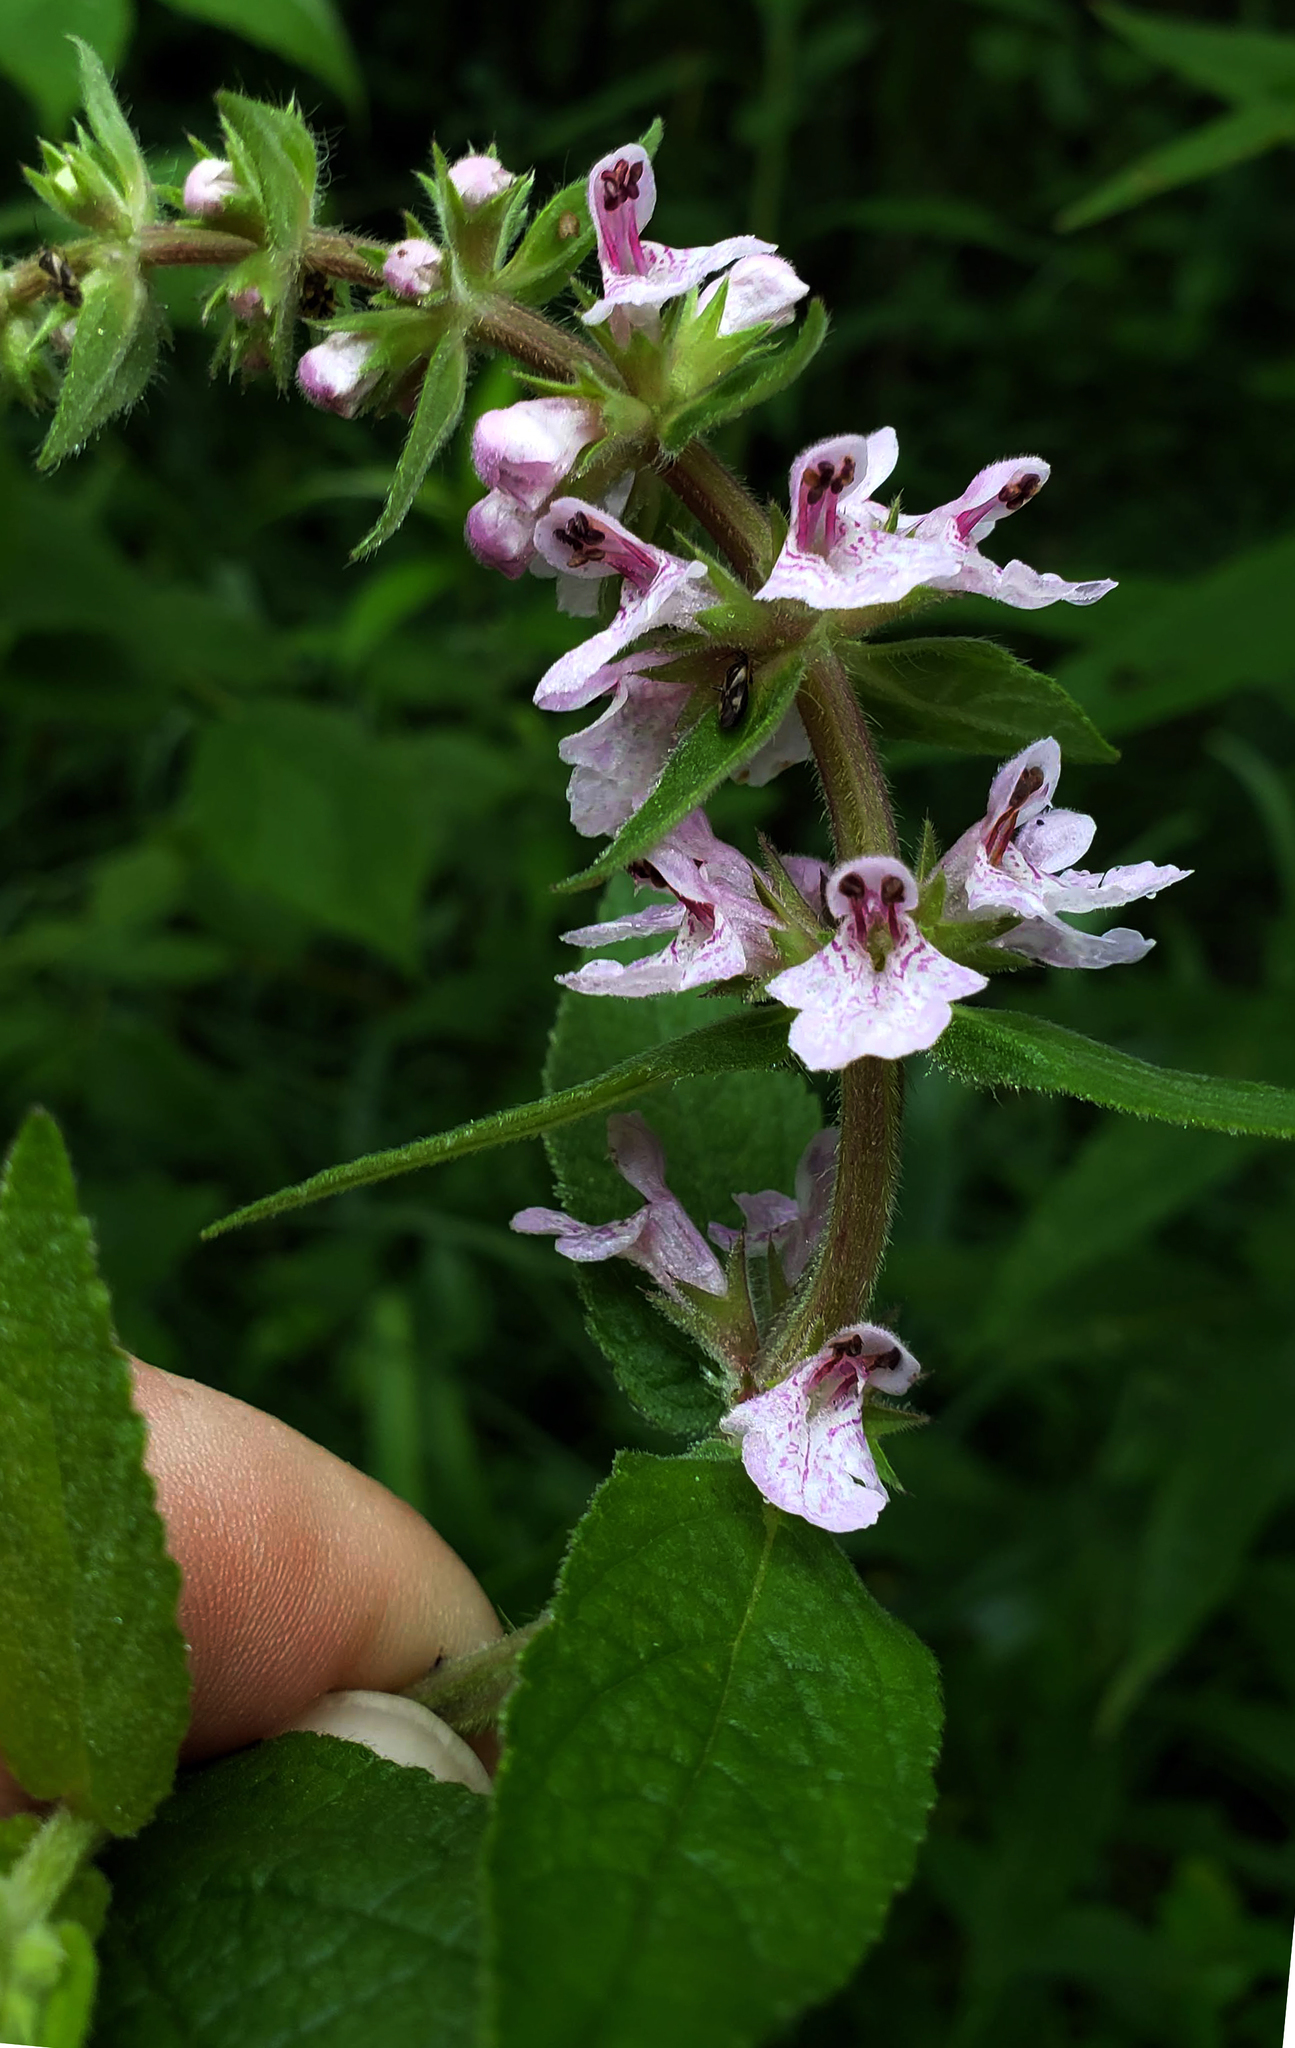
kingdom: Plantae
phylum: Tracheophyta
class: Magnoliopsida
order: Lamiales
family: Lamiaceae
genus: Stachys
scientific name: Stachys palustris
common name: Marsh woundwort
